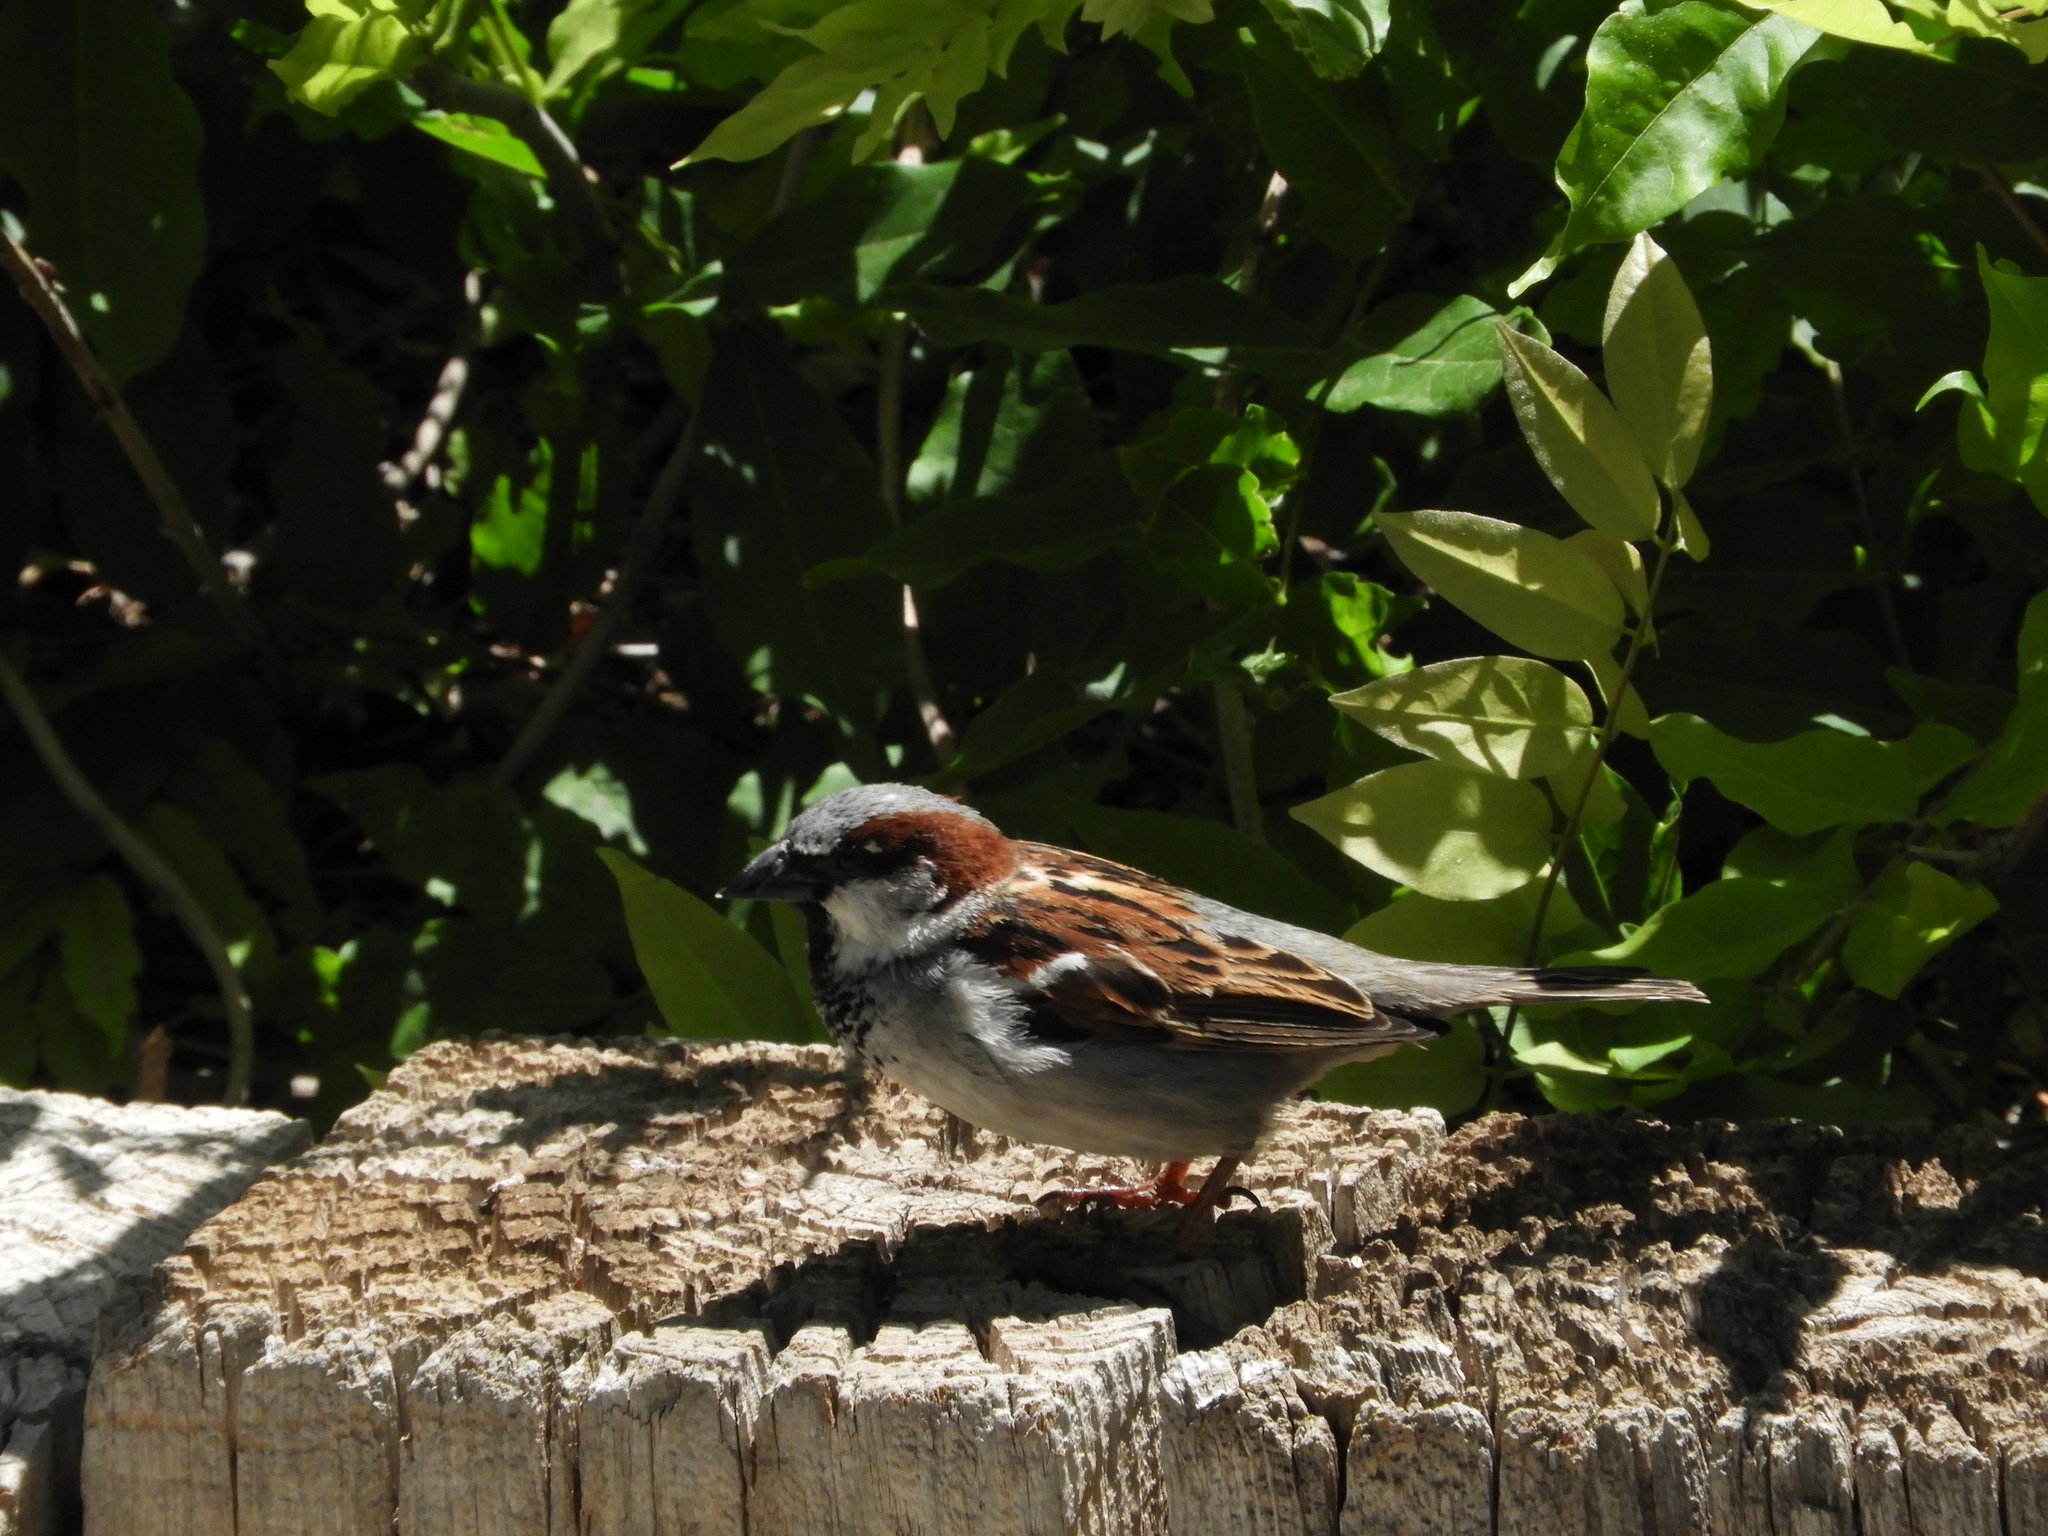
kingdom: Animalia
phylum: Chordata
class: Aves
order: Passeriformes
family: Passeridae
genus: Passer
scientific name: Passer domesticus
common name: House sparrow
